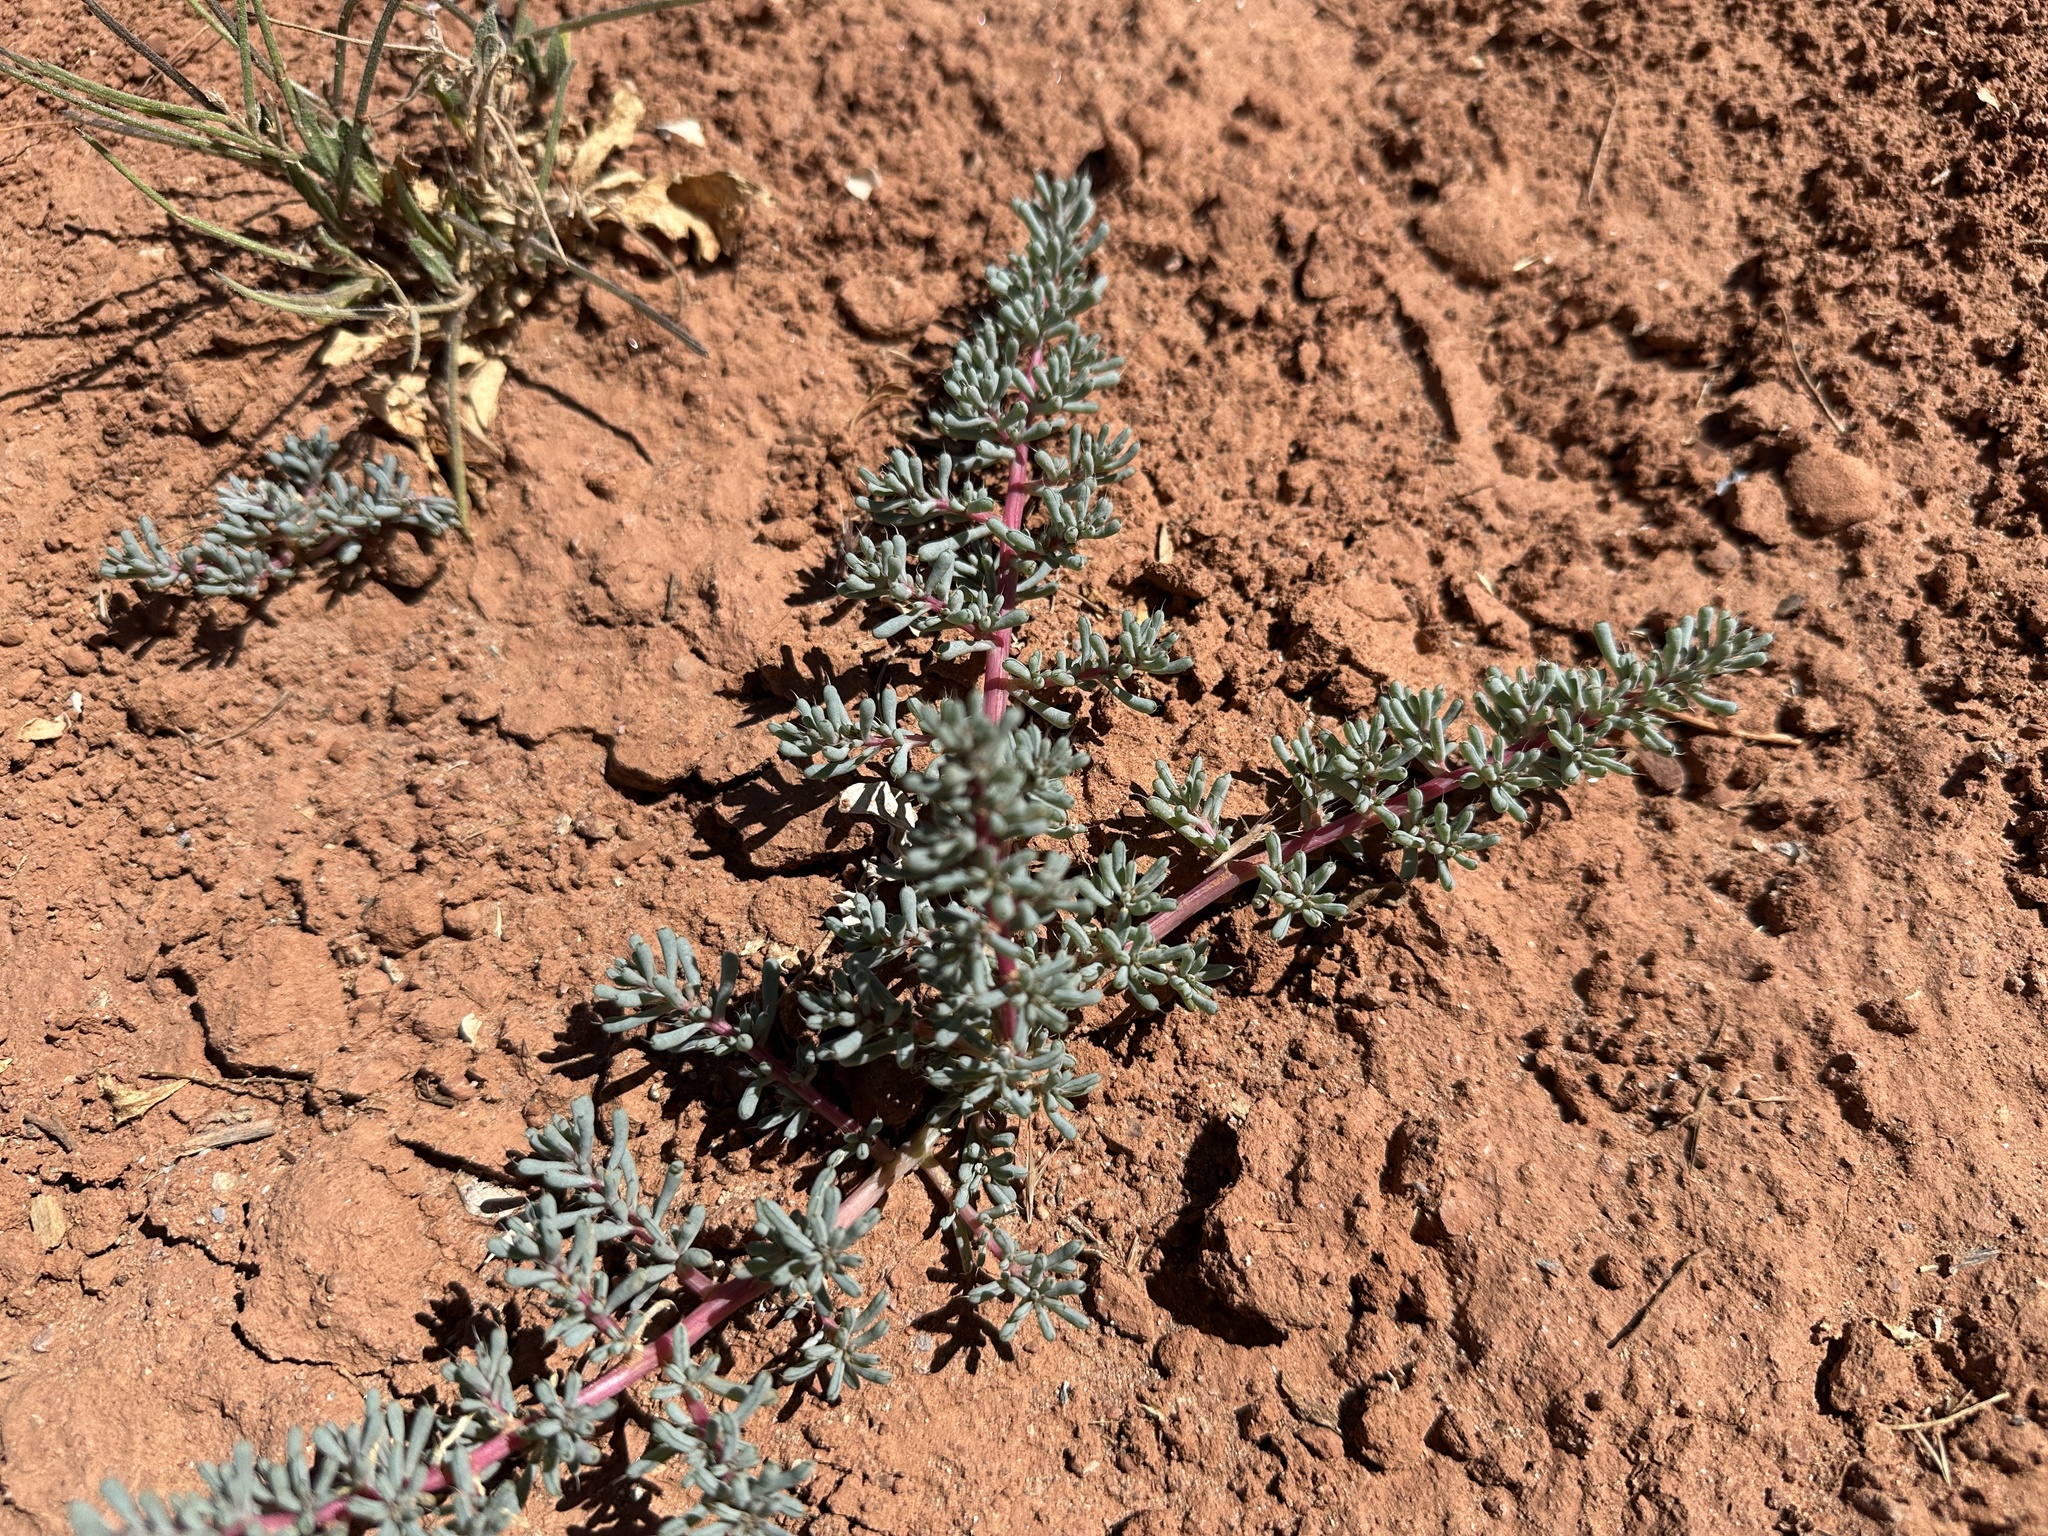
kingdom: Plantae
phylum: Tracheophyta
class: Magnoliopsida
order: Caryophyllales
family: Amaranthaceae
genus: Halogeton
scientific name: Halogeton glomeratus
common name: Saltlover
